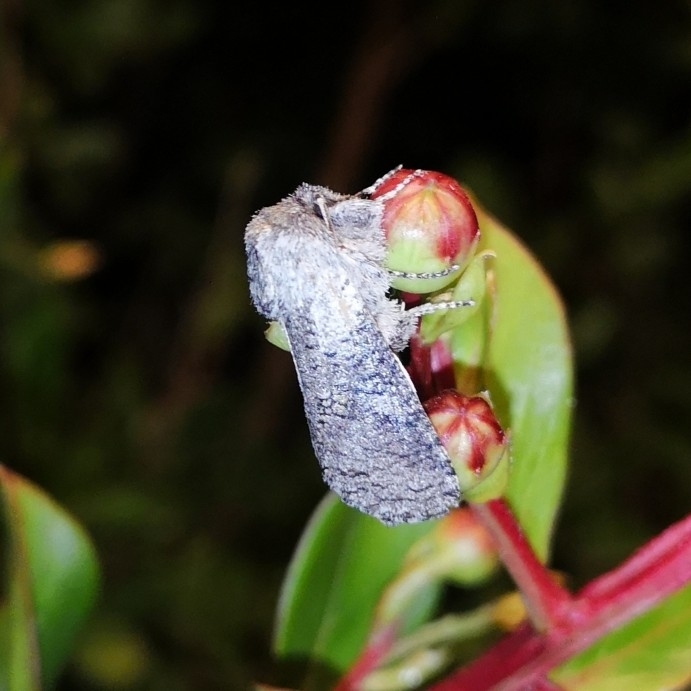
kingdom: Animalia
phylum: Arthropoda
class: Insecta
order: Lepidoptera
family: Cossidae
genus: Chilecomadia
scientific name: Chilecomadia moorei
